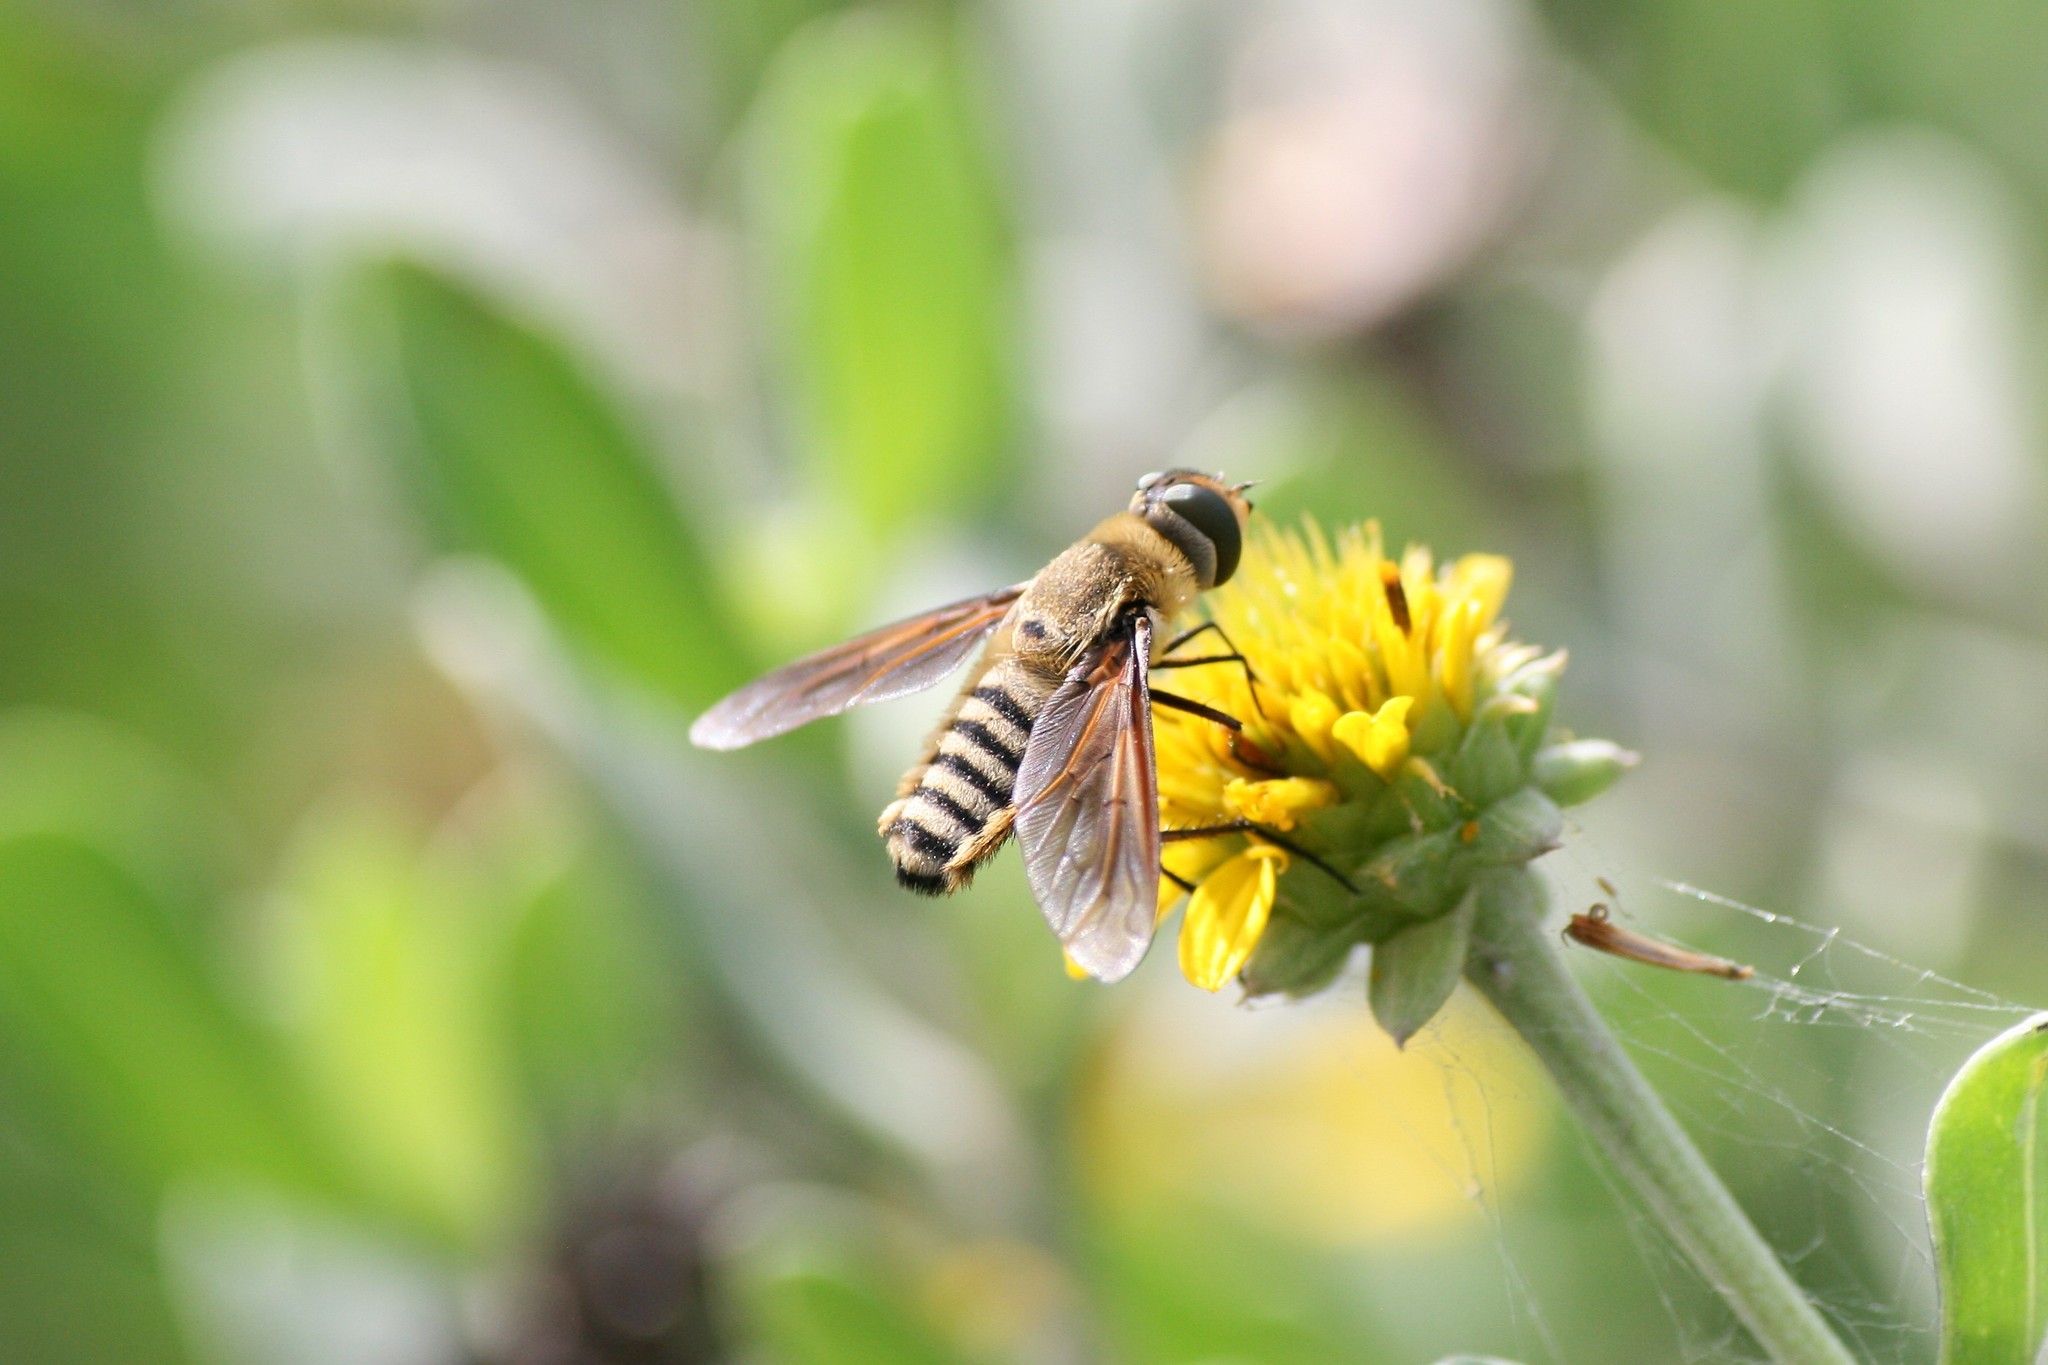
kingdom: Animalia
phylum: Arthropoda
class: Insecta
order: Diptera
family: Bombyliidae
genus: Poecilanthrax
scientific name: Poecilanthrax lucifer
